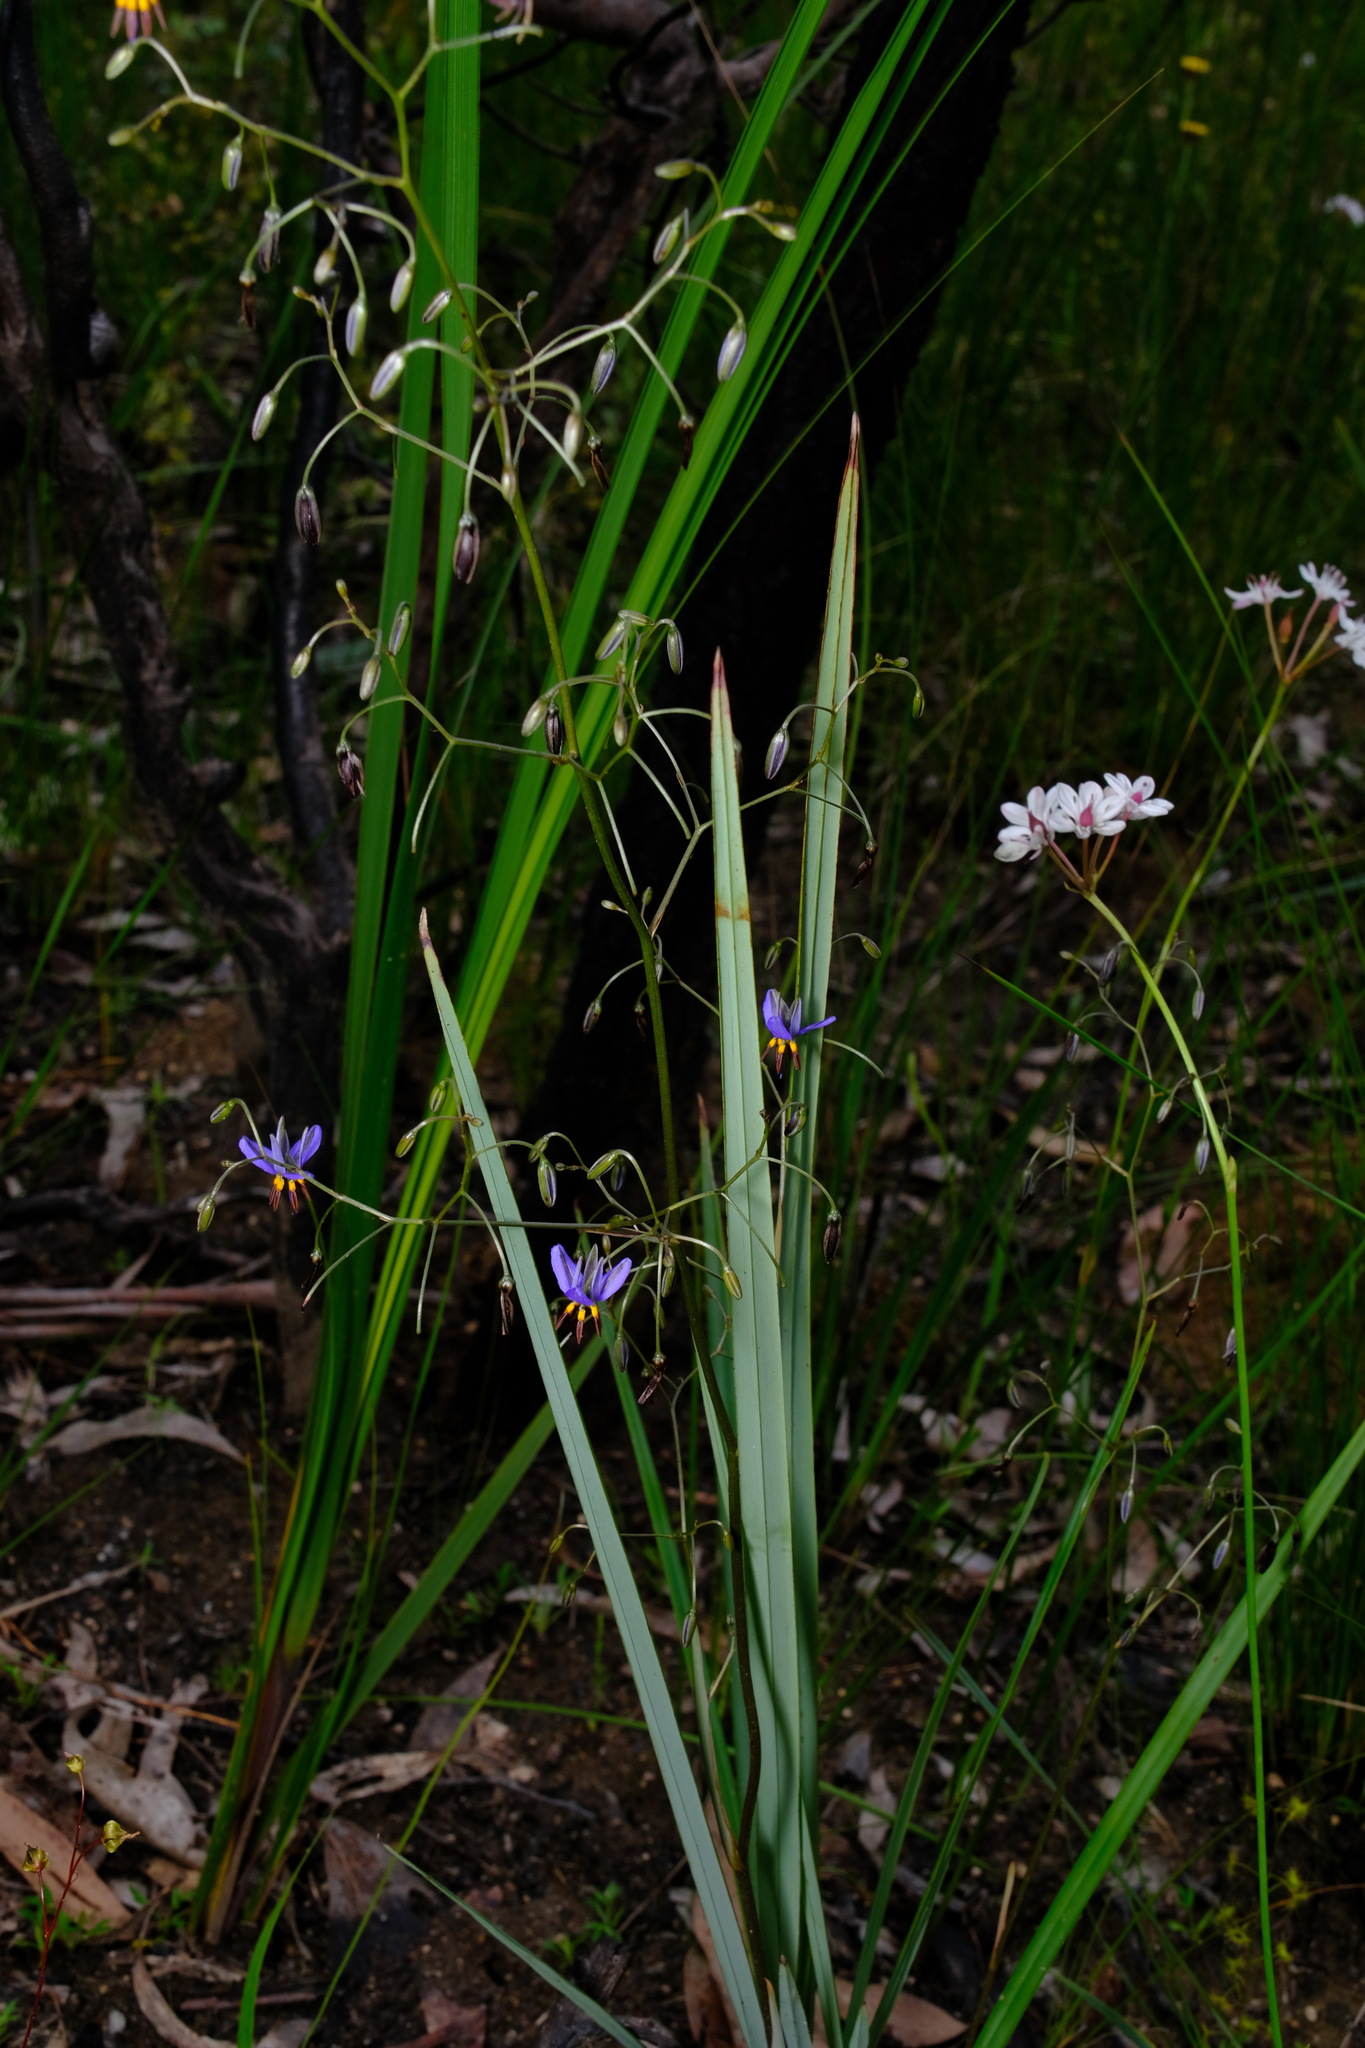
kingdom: Plantae
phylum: Tracheophyta
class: Liliopsida
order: Asparagales
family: Asphodelaceae
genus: Dianella
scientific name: Dianella revoluta
